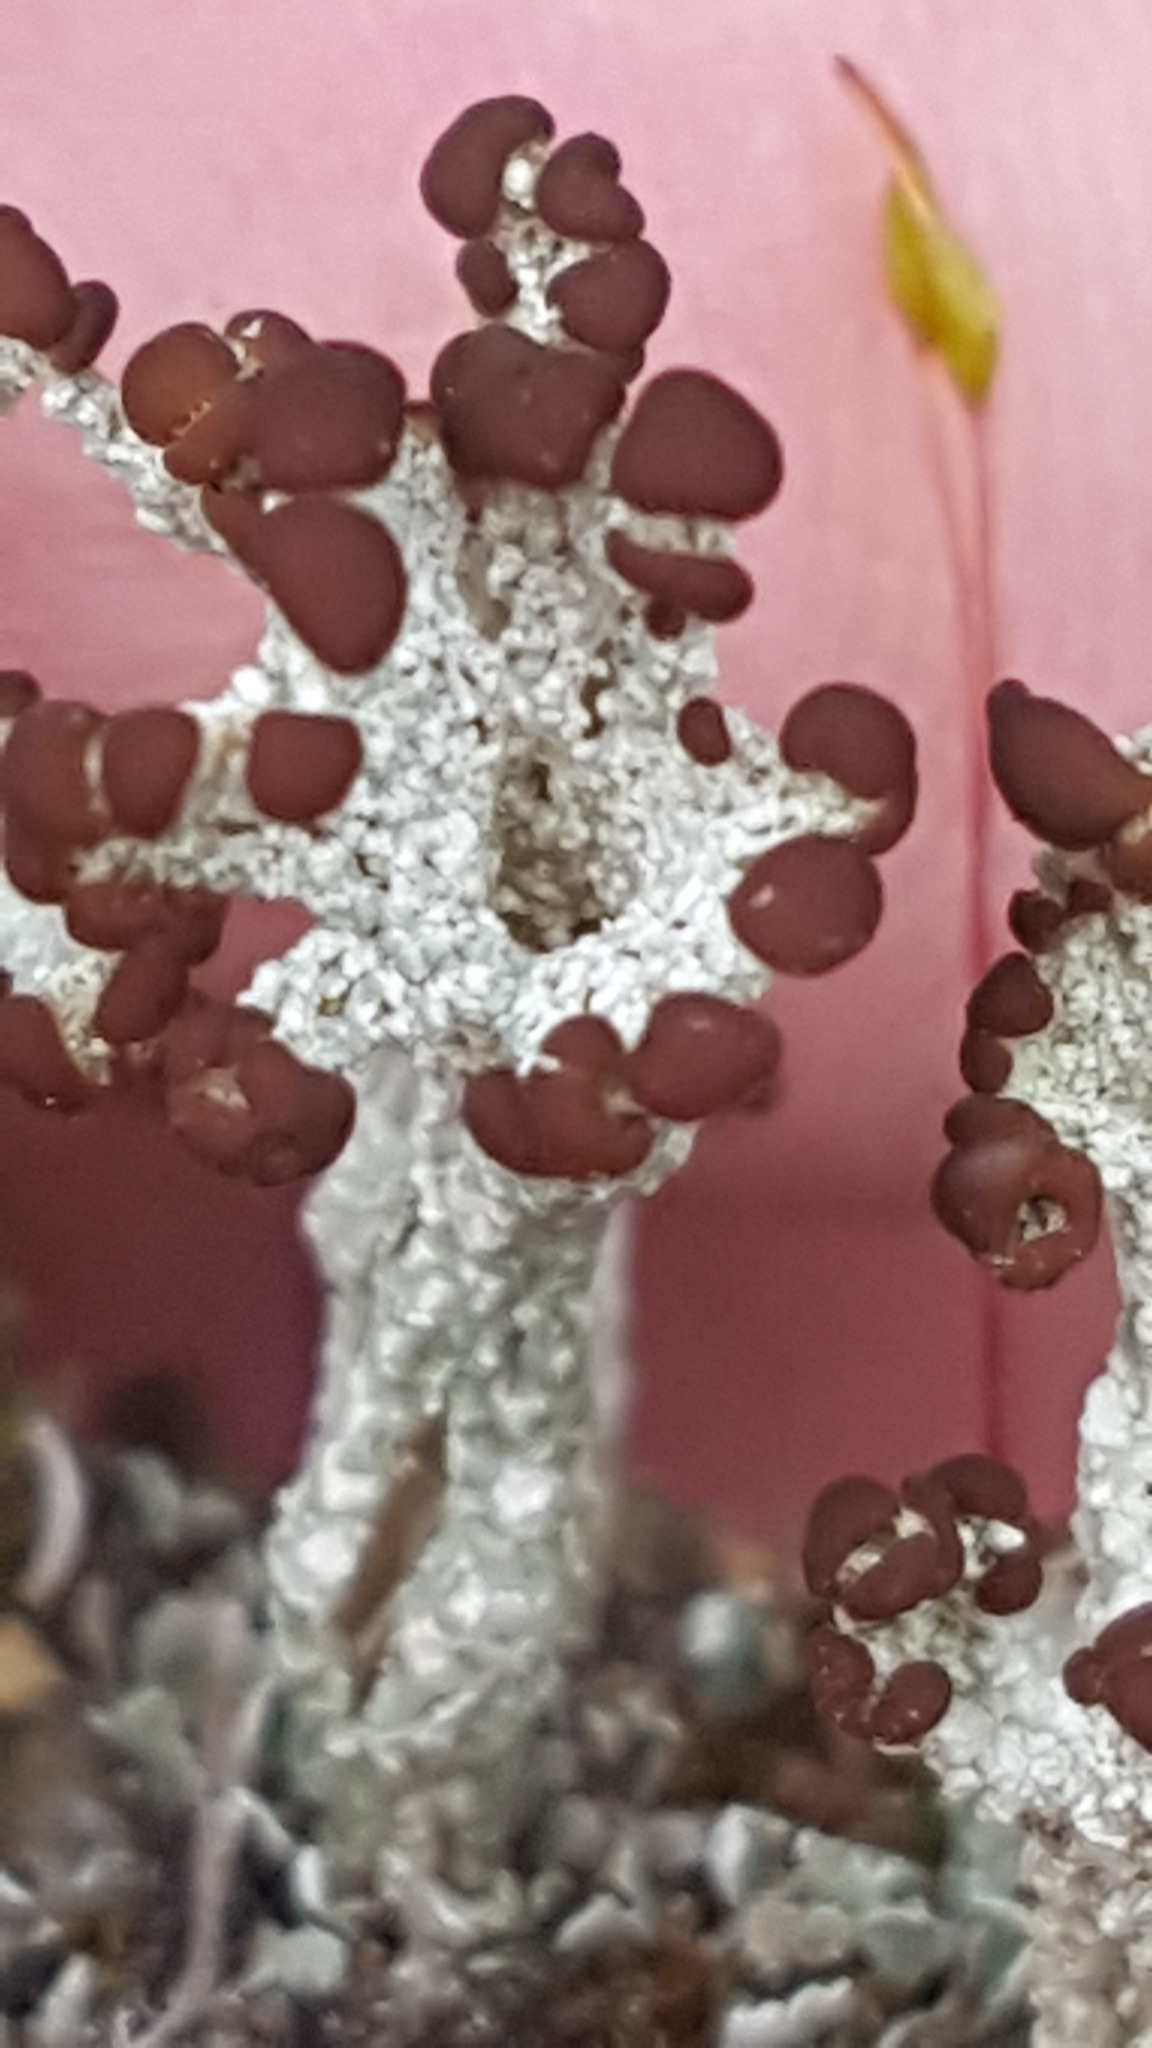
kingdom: Fungi
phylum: Ascomycota
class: Lecanoromycetes
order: Lecanorales
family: Cladoniaceae
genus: Cladonia
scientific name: Cladonia cariosa
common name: Split-peg lichen
